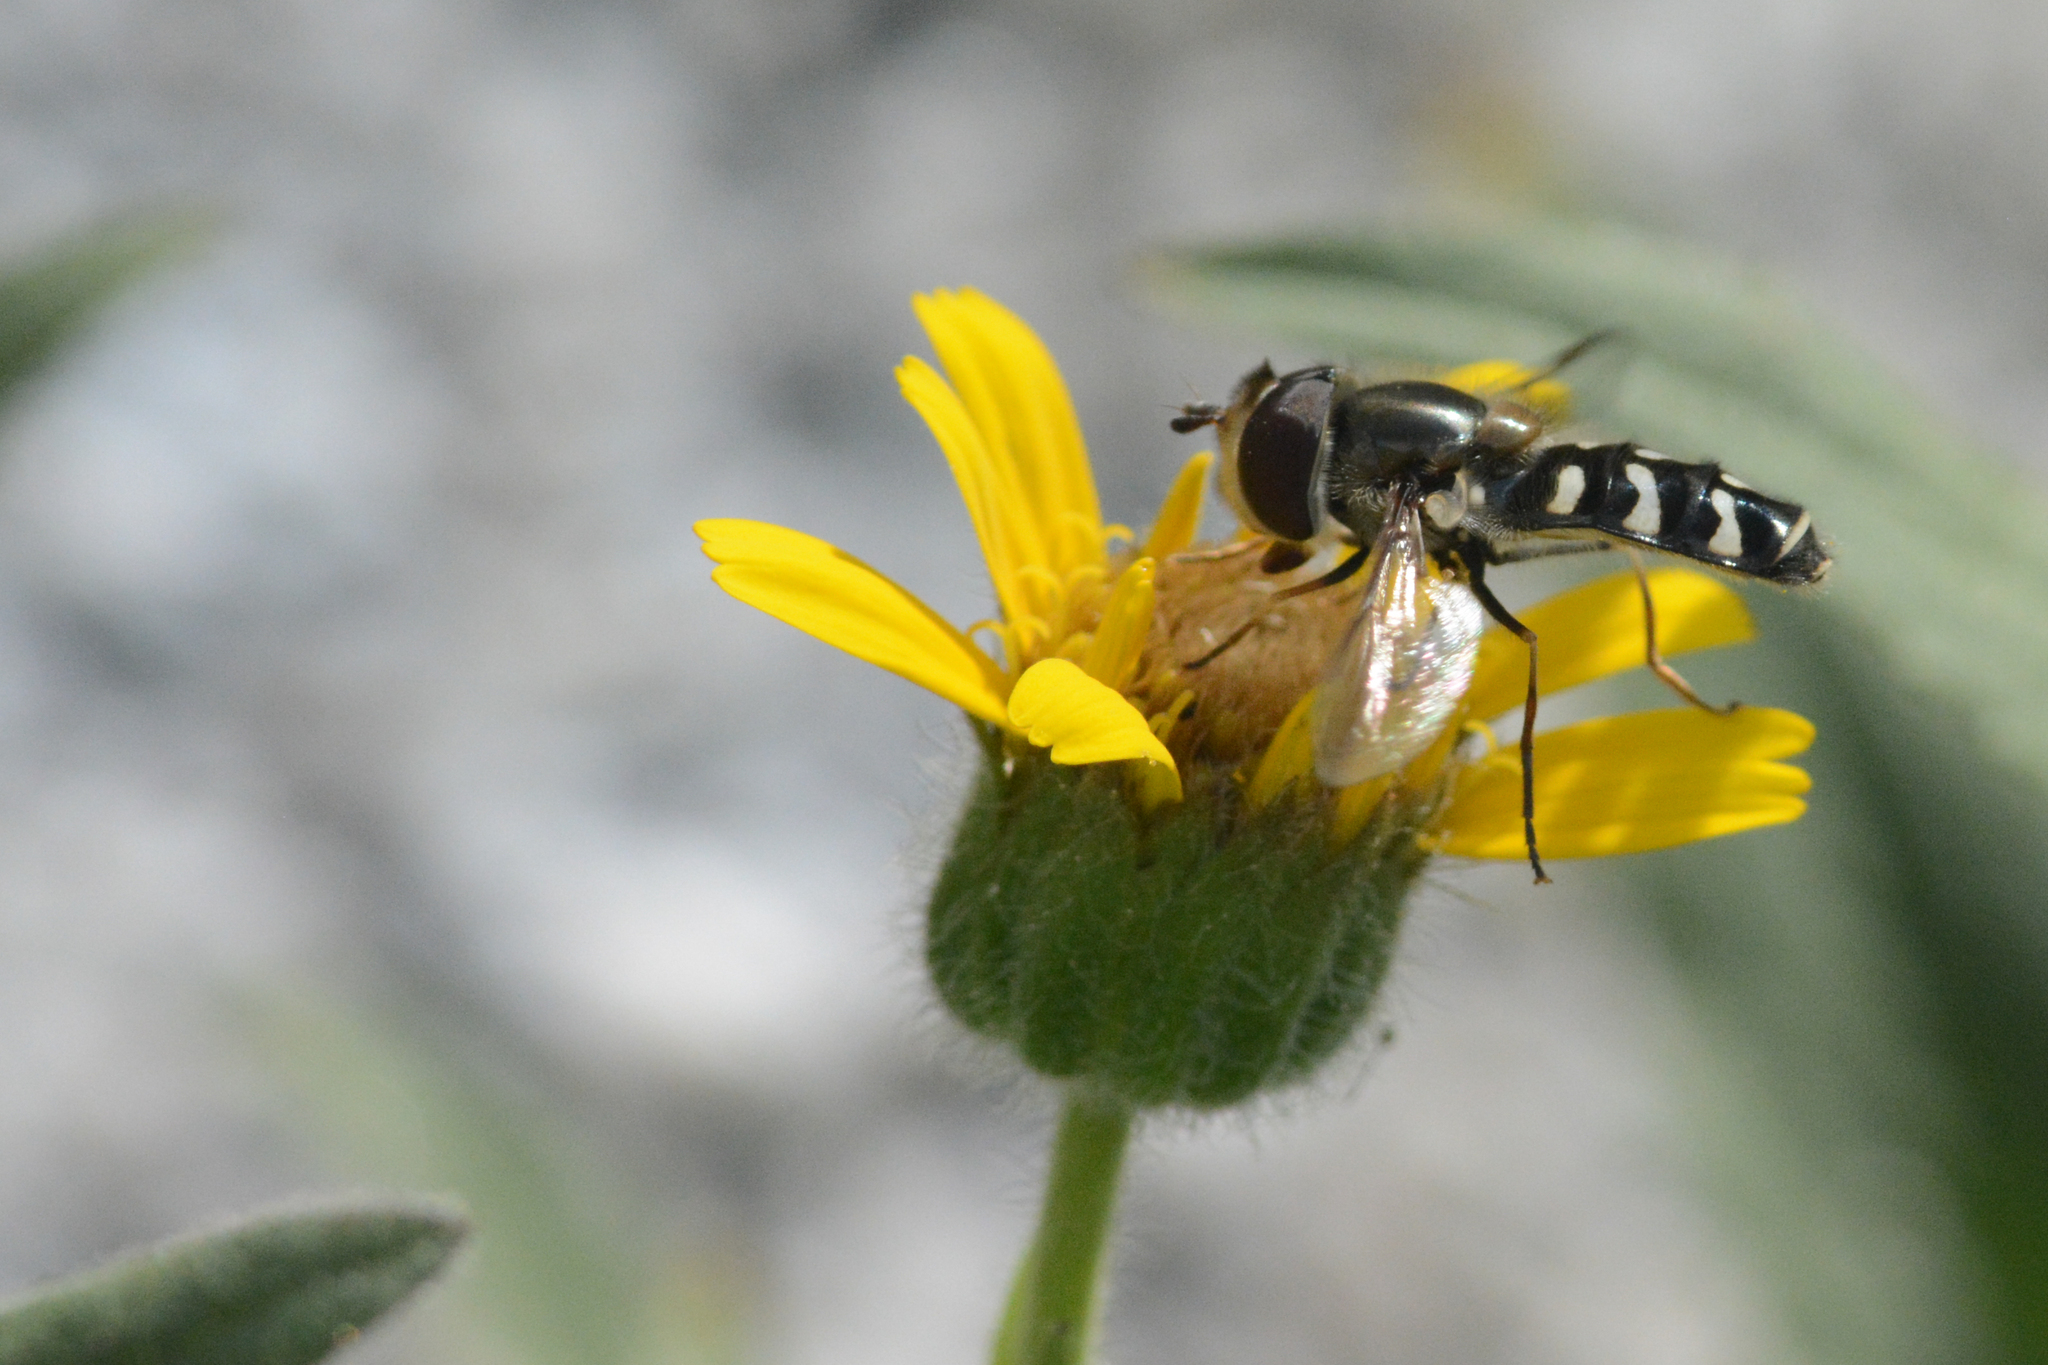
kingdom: Animalia
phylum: Arthropoda
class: Insecta
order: Diptera
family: Syrphidae
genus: Scaeva
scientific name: Scaeva affinis
